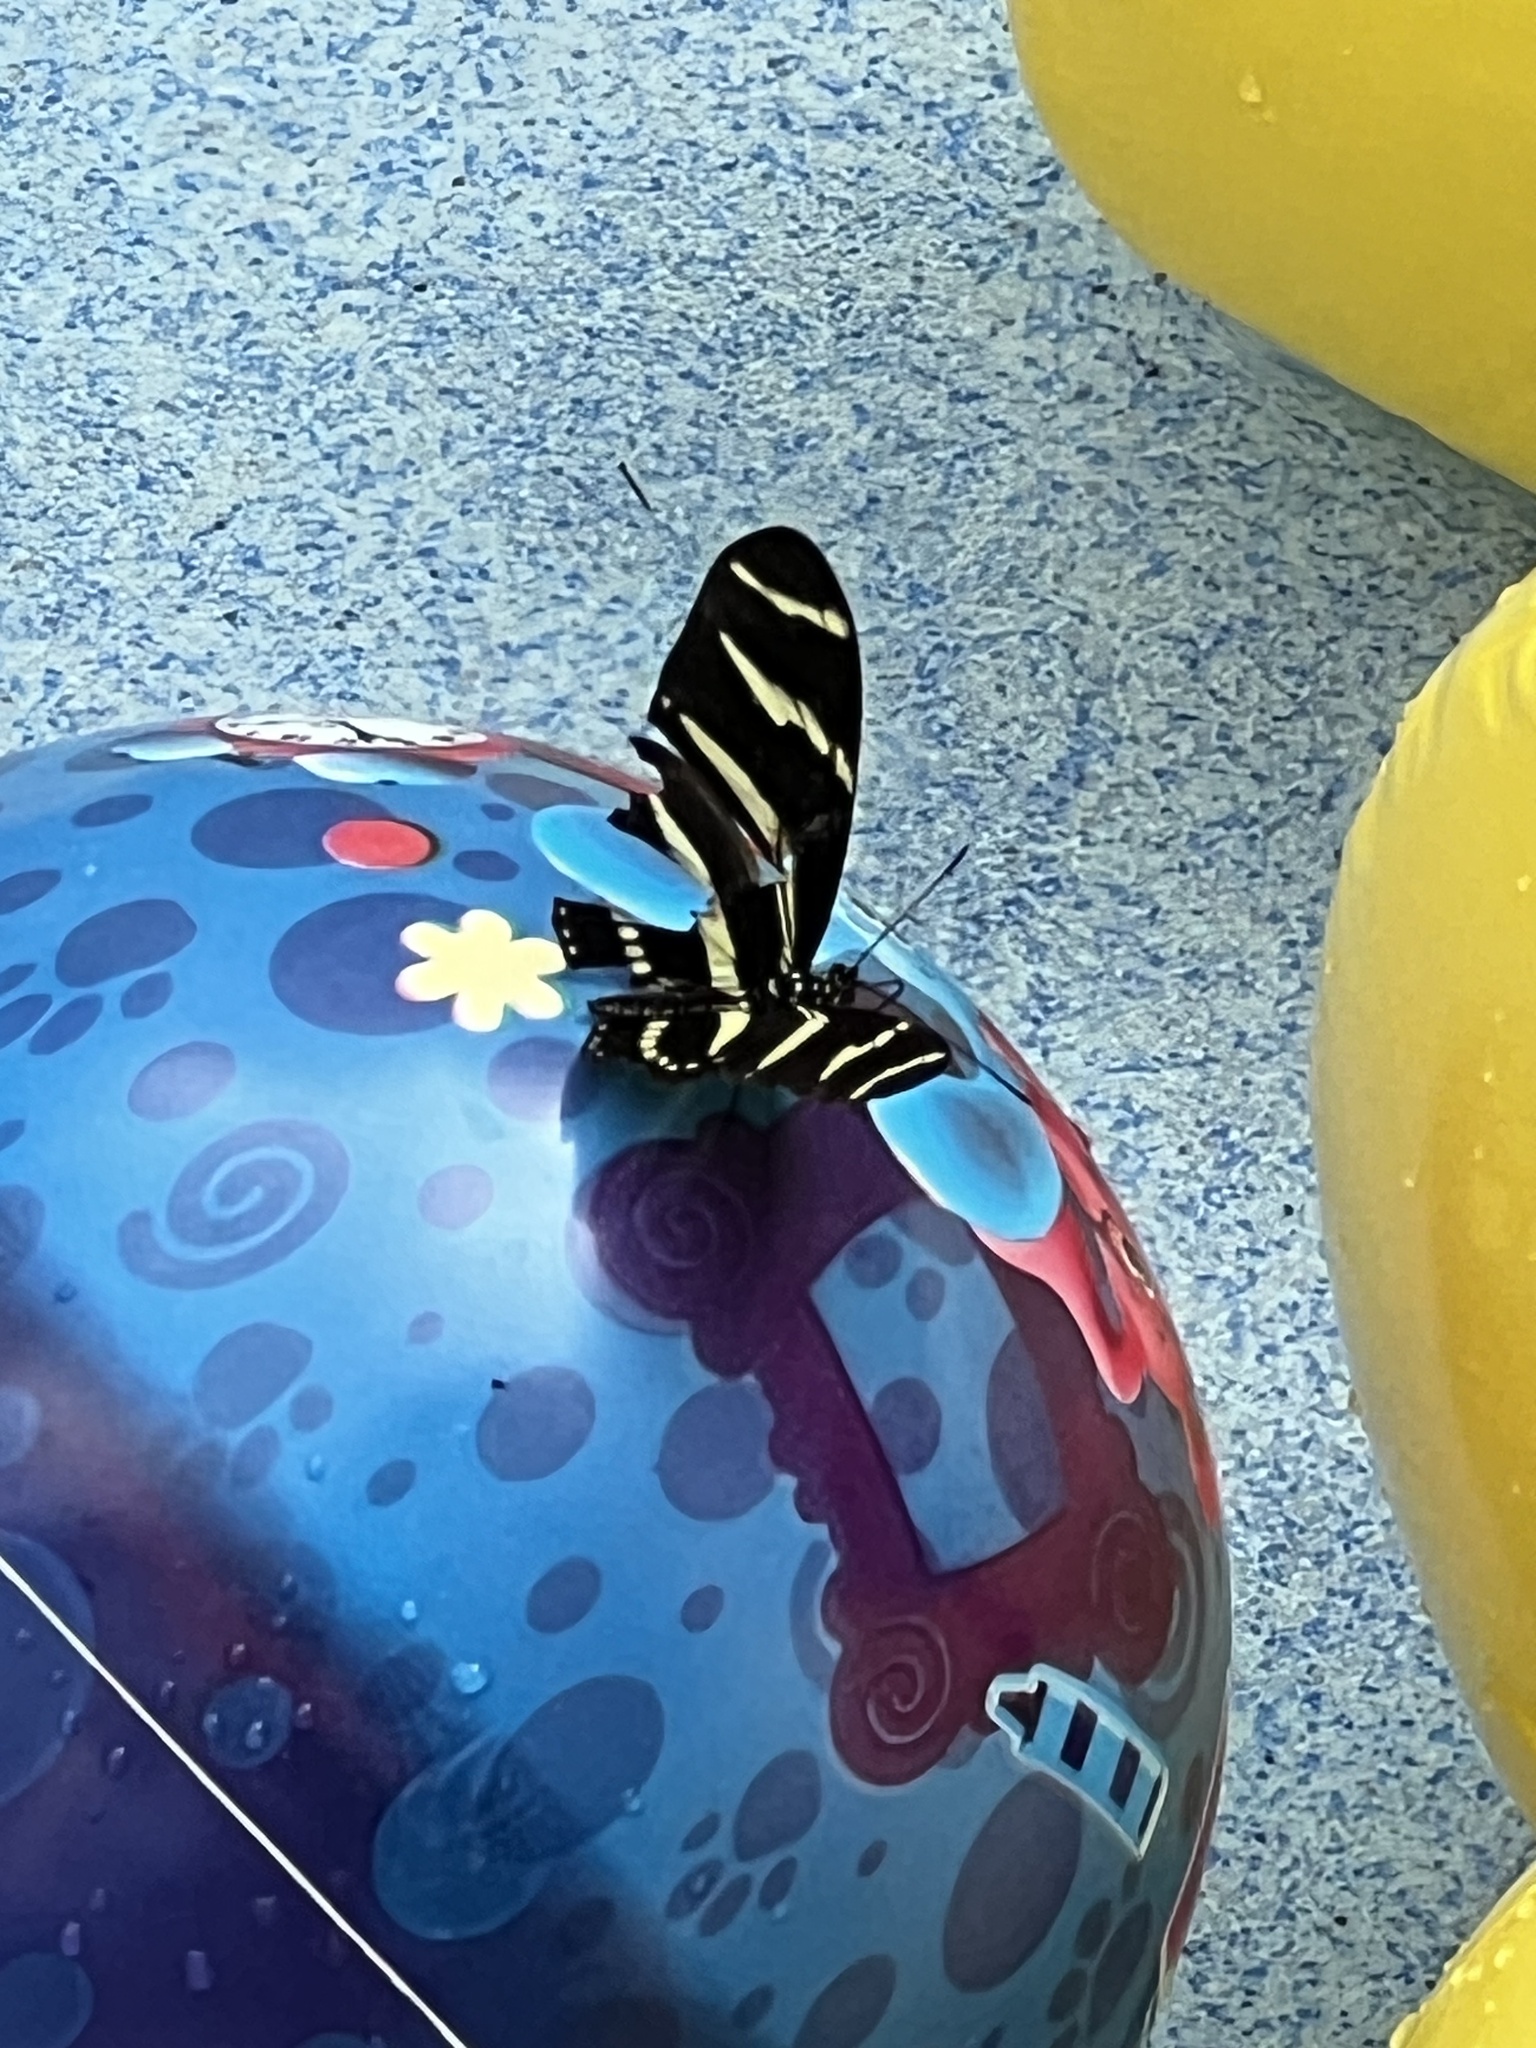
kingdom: Animalia
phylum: Arthropoda
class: Insecta
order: Lepidoptera
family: Nymphalidae
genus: Heliconius
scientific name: Heliconius charithonia
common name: Zebra long wing
